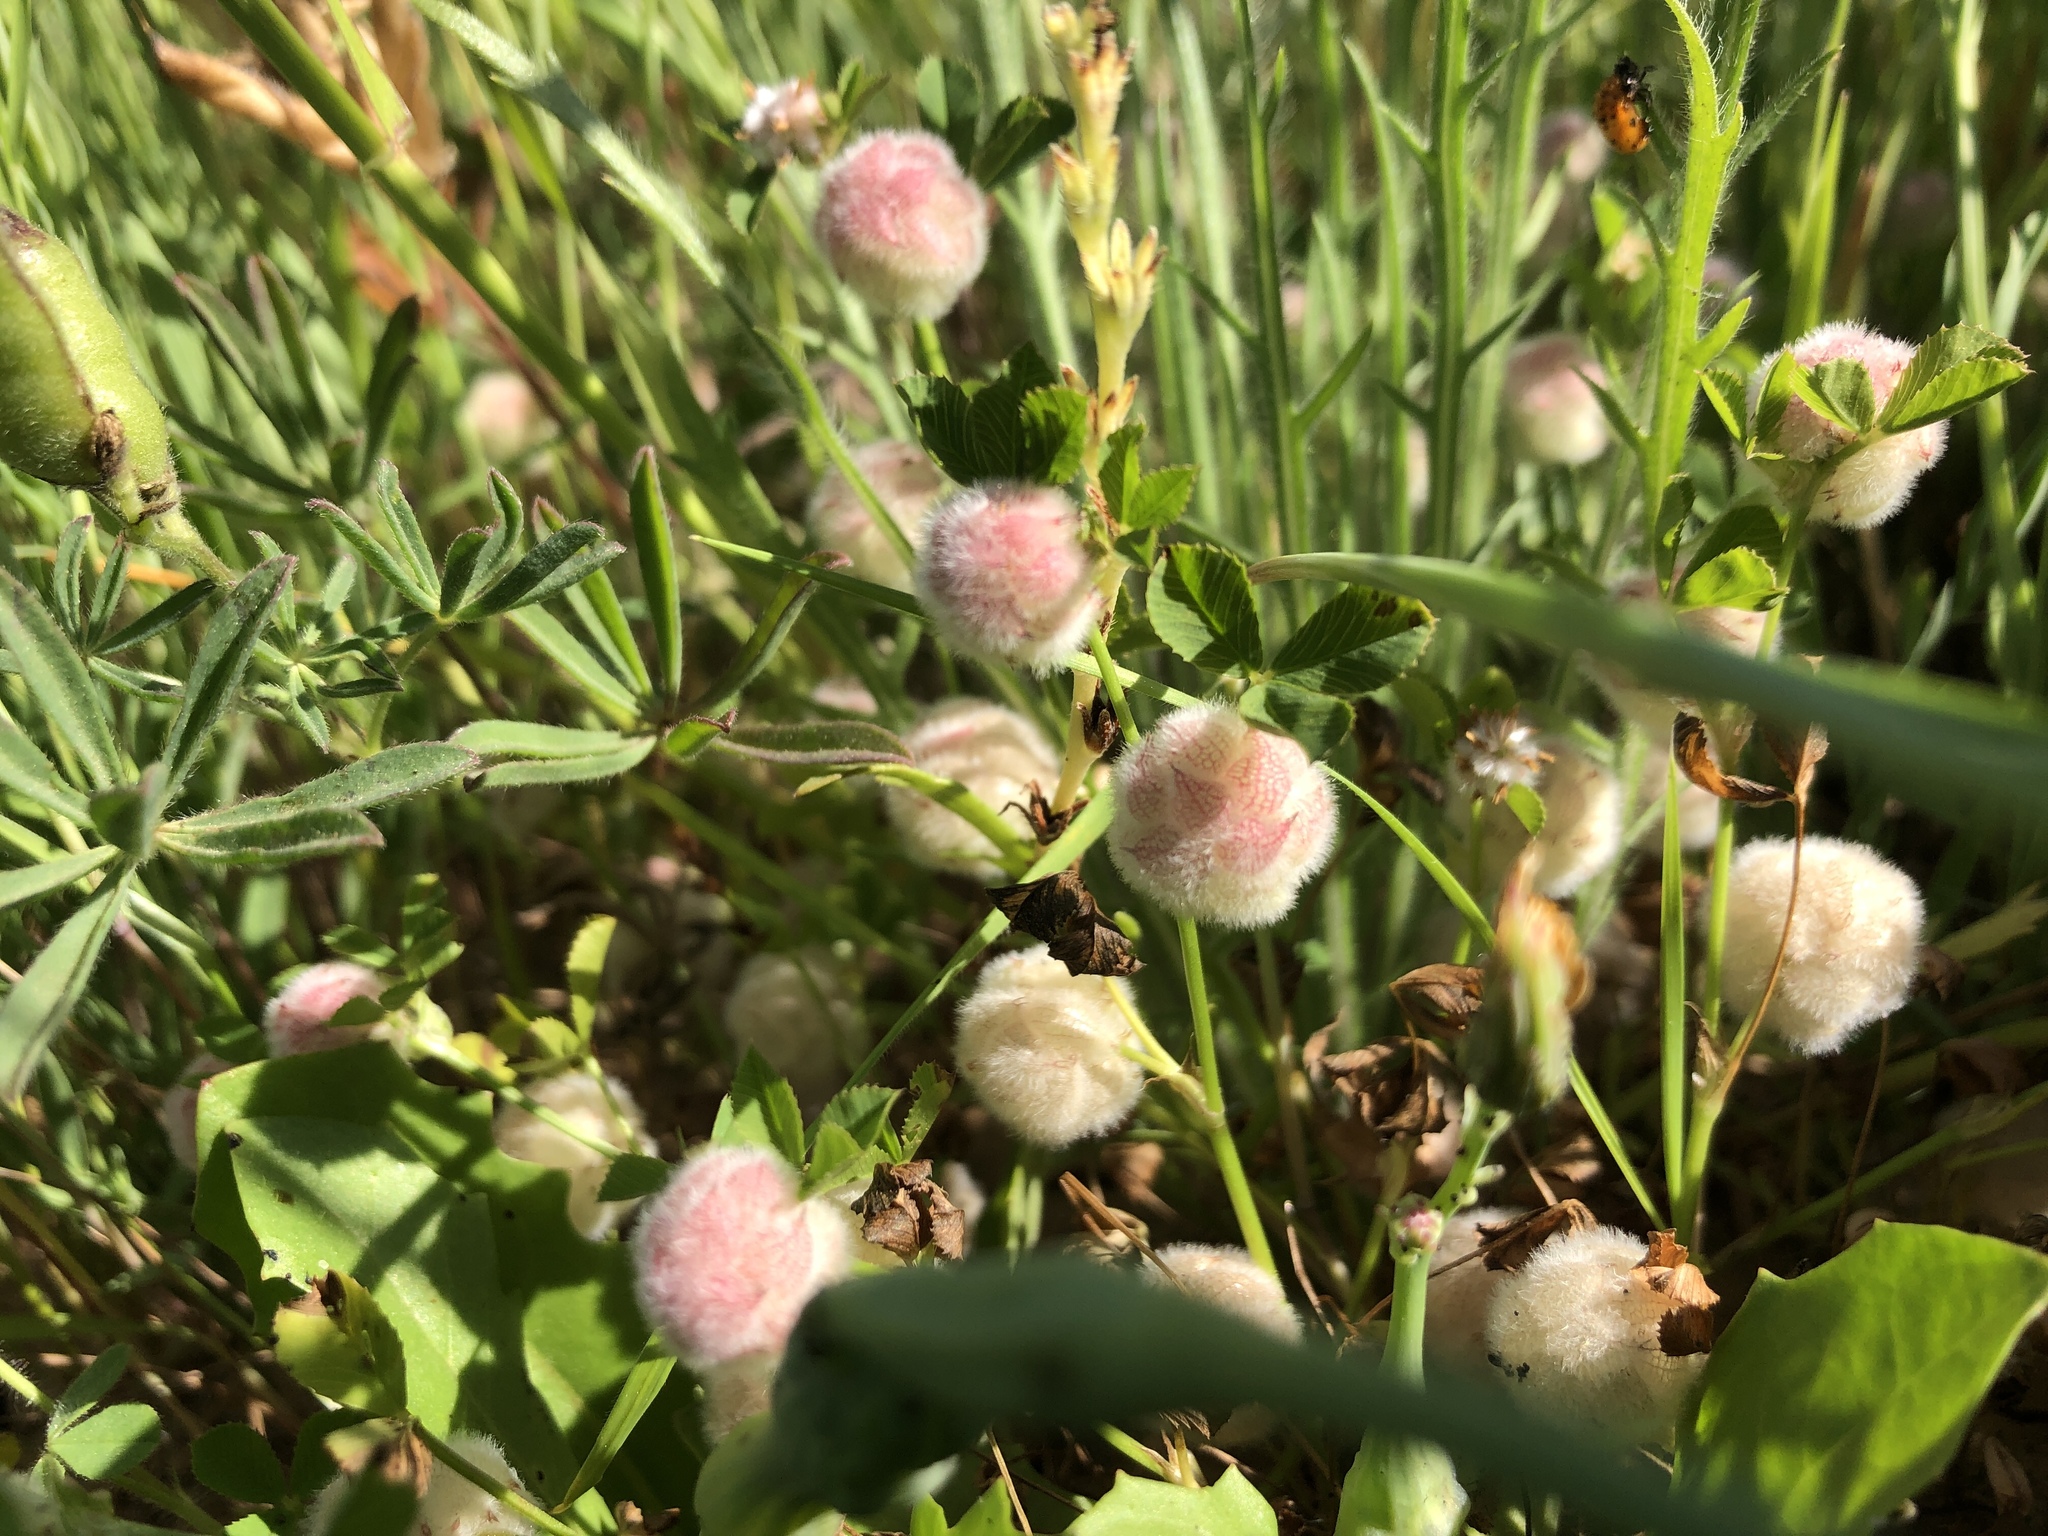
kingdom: Plantae
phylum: Tracheophyta
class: Magnoliopsida
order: Fabales
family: Fabaceae
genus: Trifolium
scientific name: Trifolium tomentosum
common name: Woolly clover
